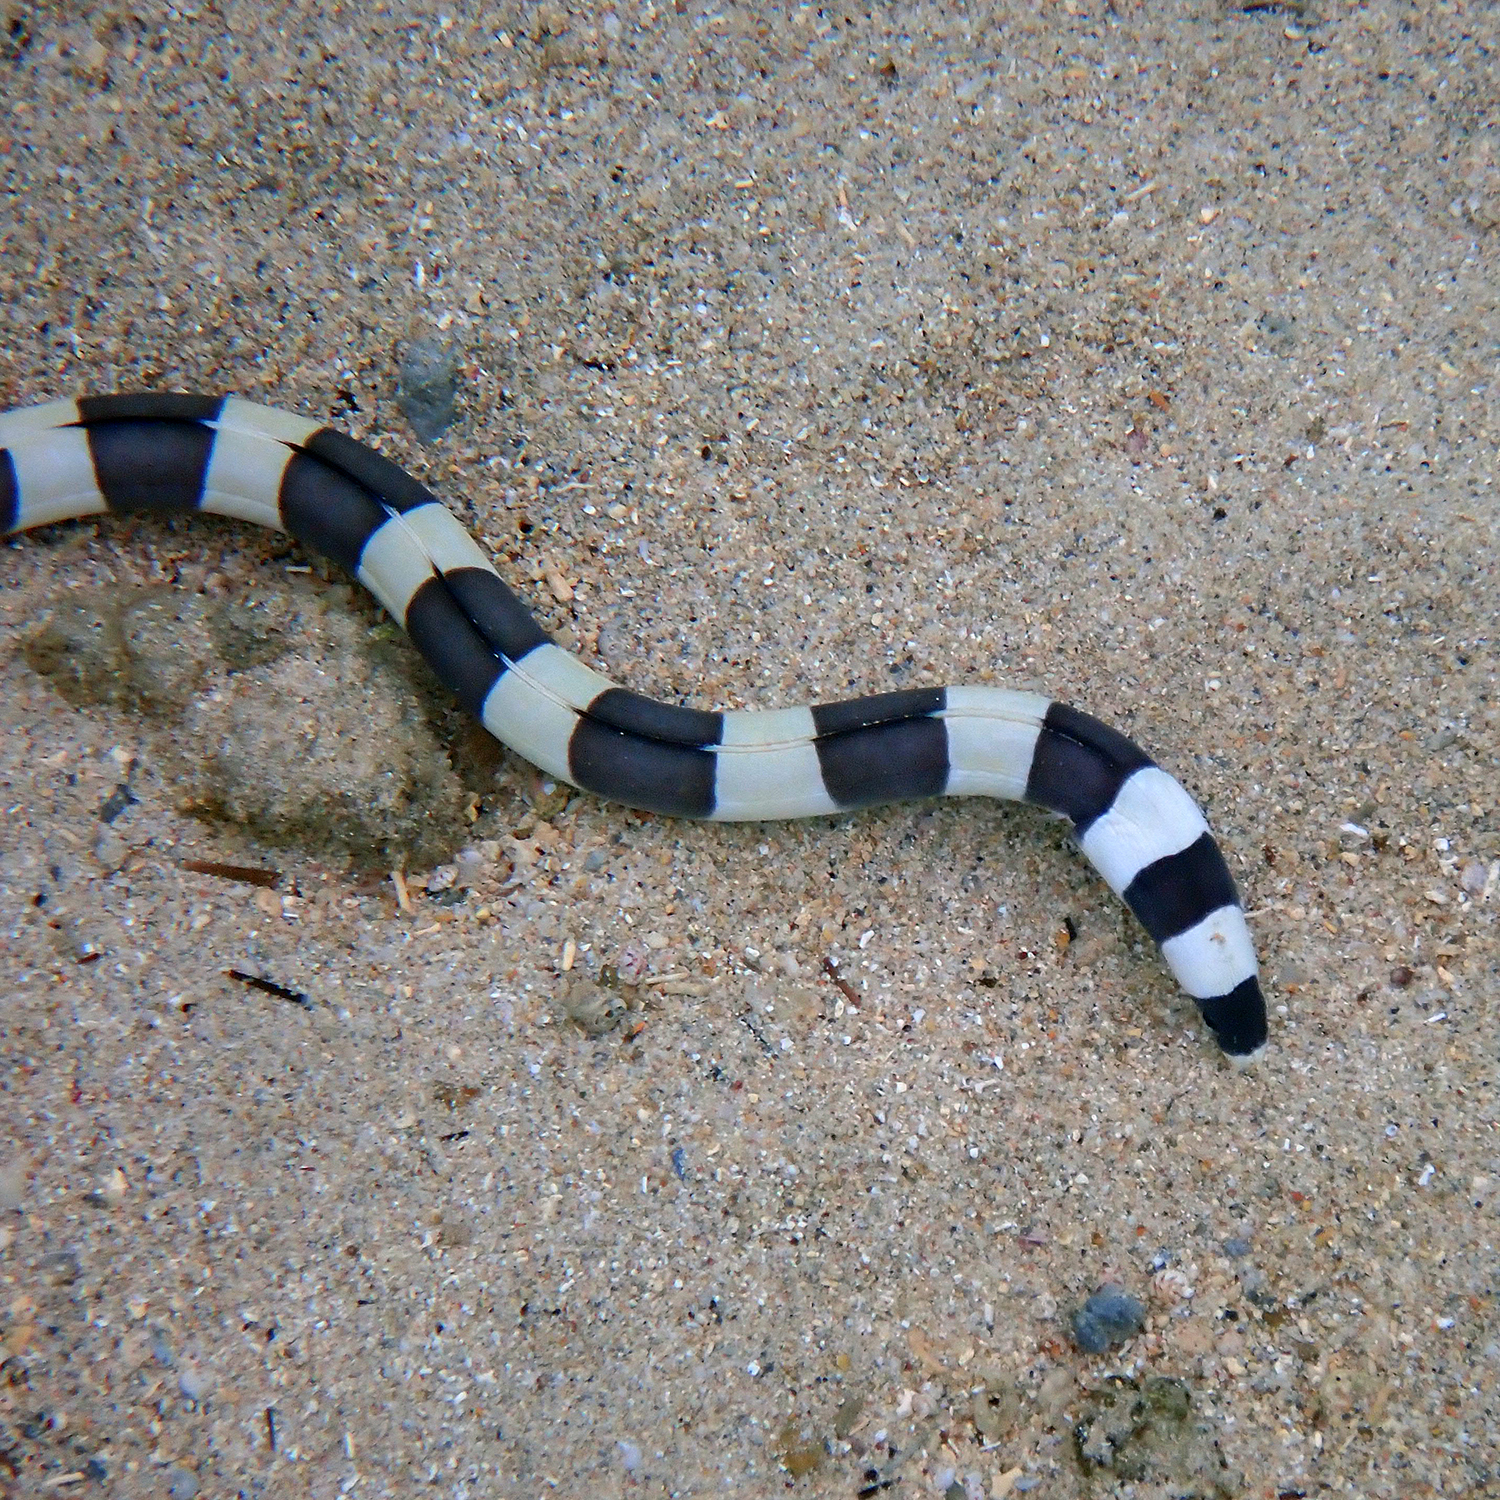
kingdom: Animalia
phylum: Chordata
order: Anguilliformes
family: Ophichthidae
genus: Leiuranus
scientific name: Leiuranus semicinctus
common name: Saddled snake eel
